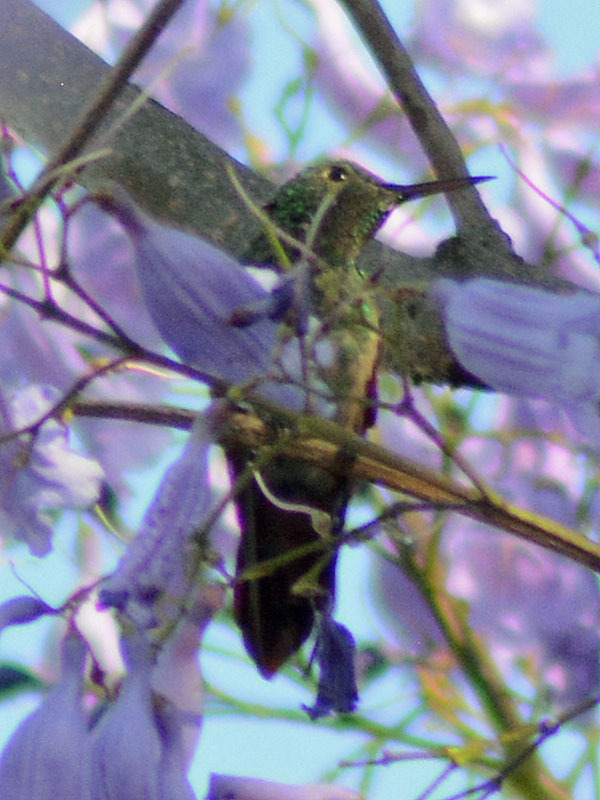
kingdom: Animalia
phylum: Chordata
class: Aves
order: Apodiformes
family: Trochilidae
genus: Saucerottia
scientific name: Saucerottia beryllina
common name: Berylline hummingbird
